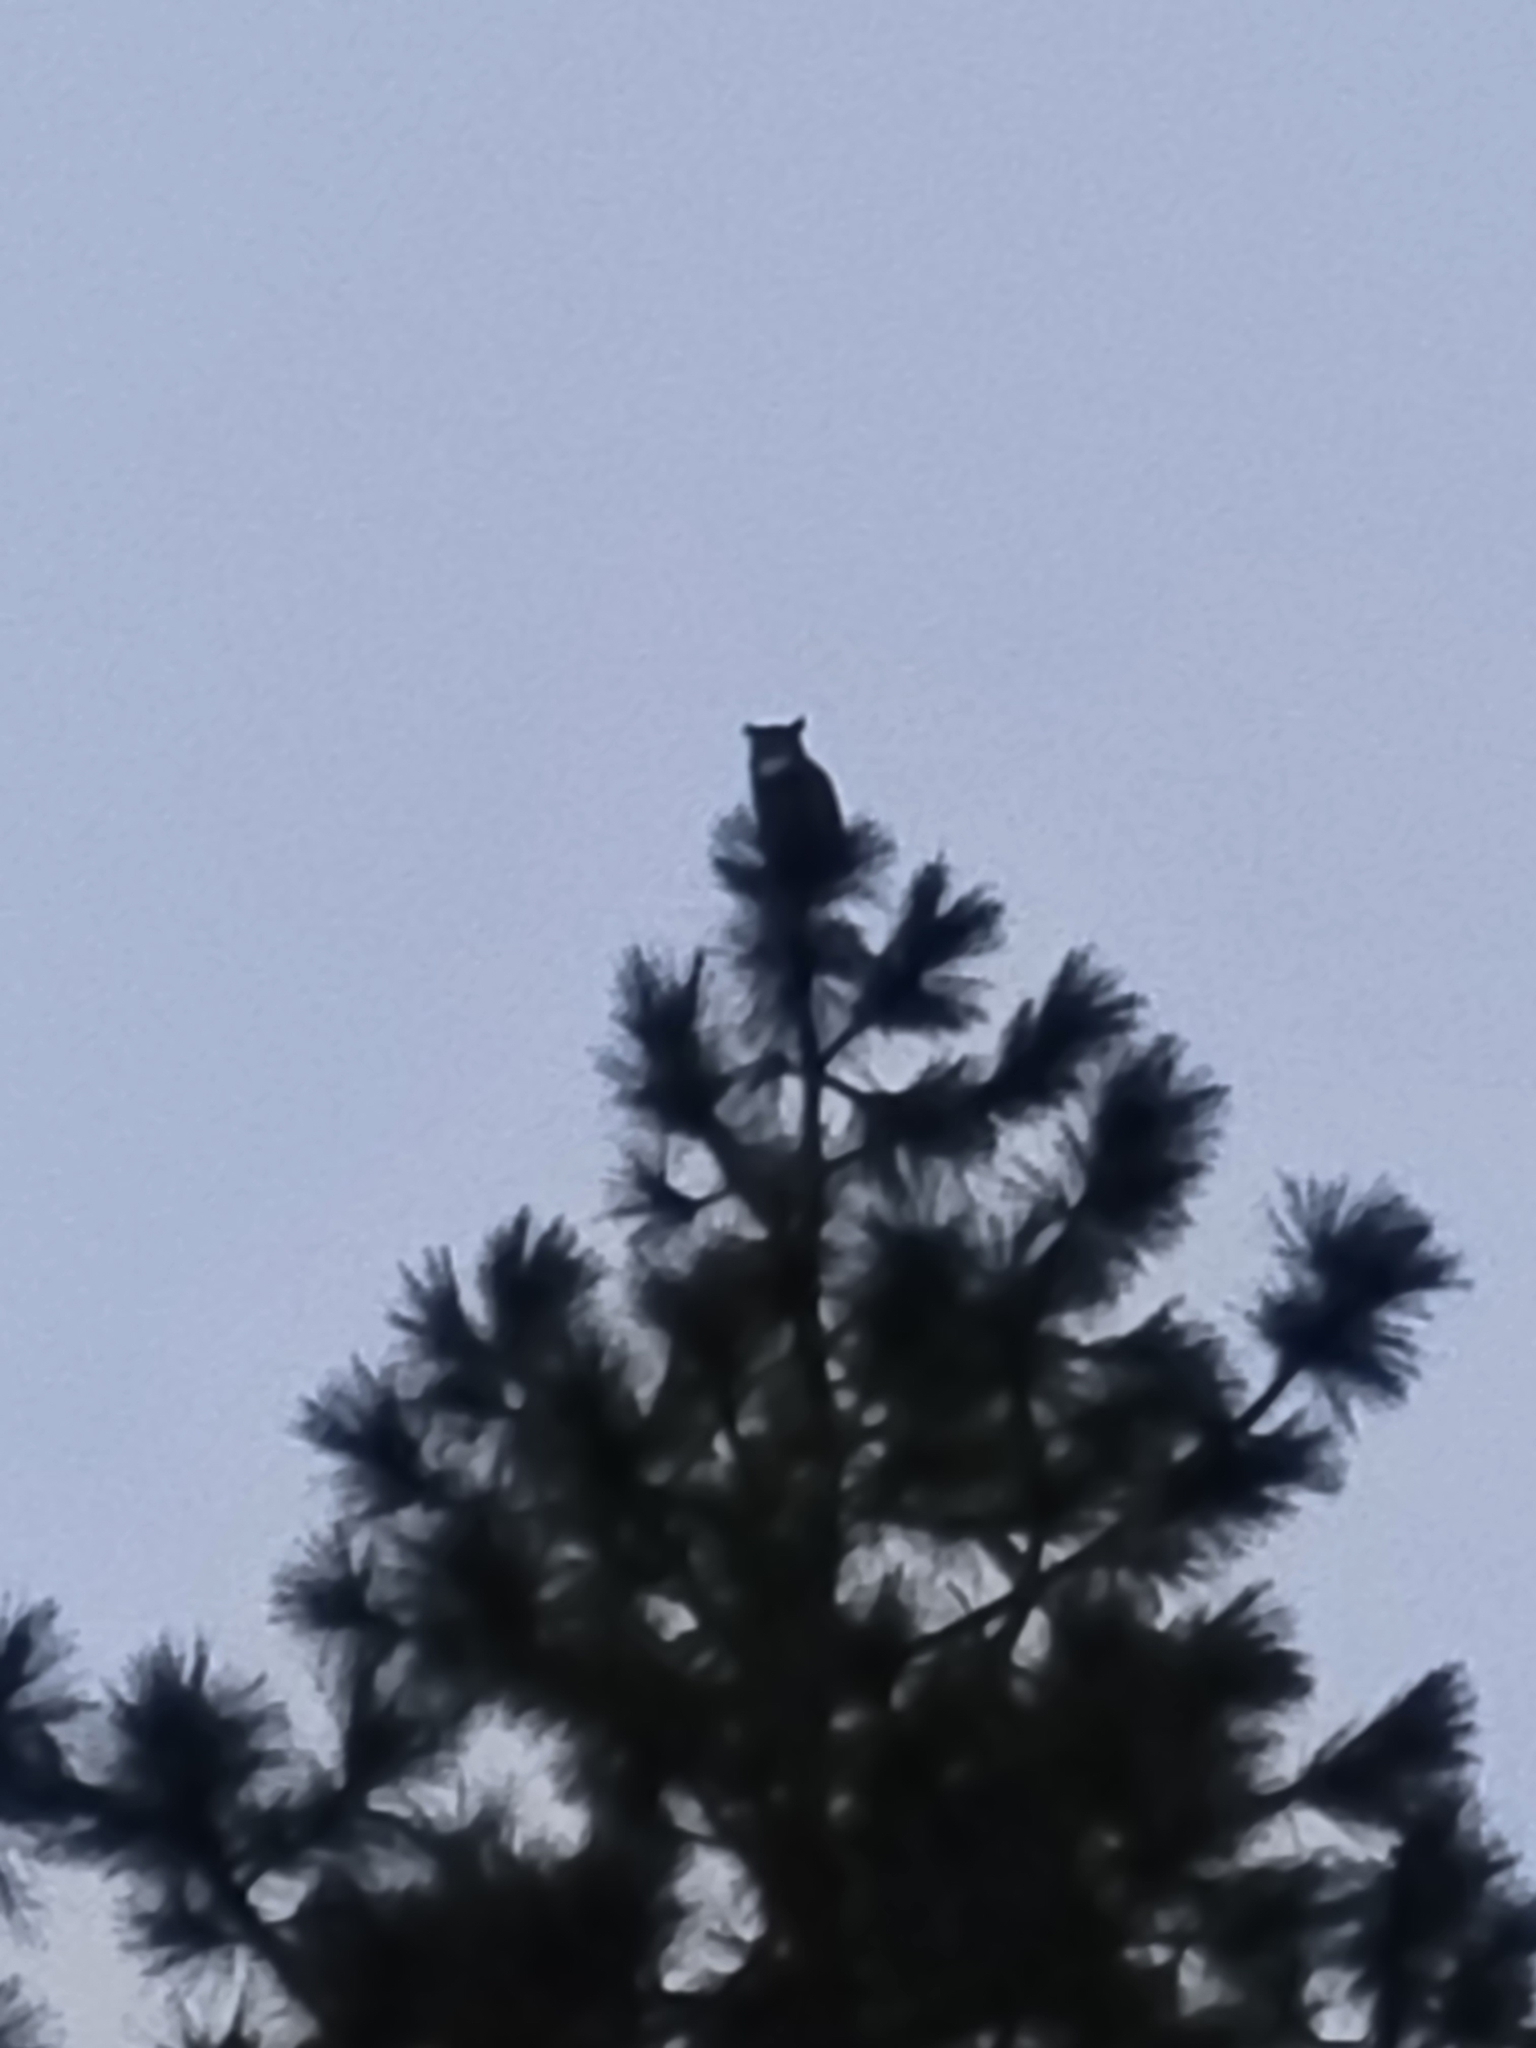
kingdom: Animalia
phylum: Chordata
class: Aves
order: Strigiformes
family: Strigidae
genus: Bubo
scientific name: Bubo virginianus
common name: Great horned owl
